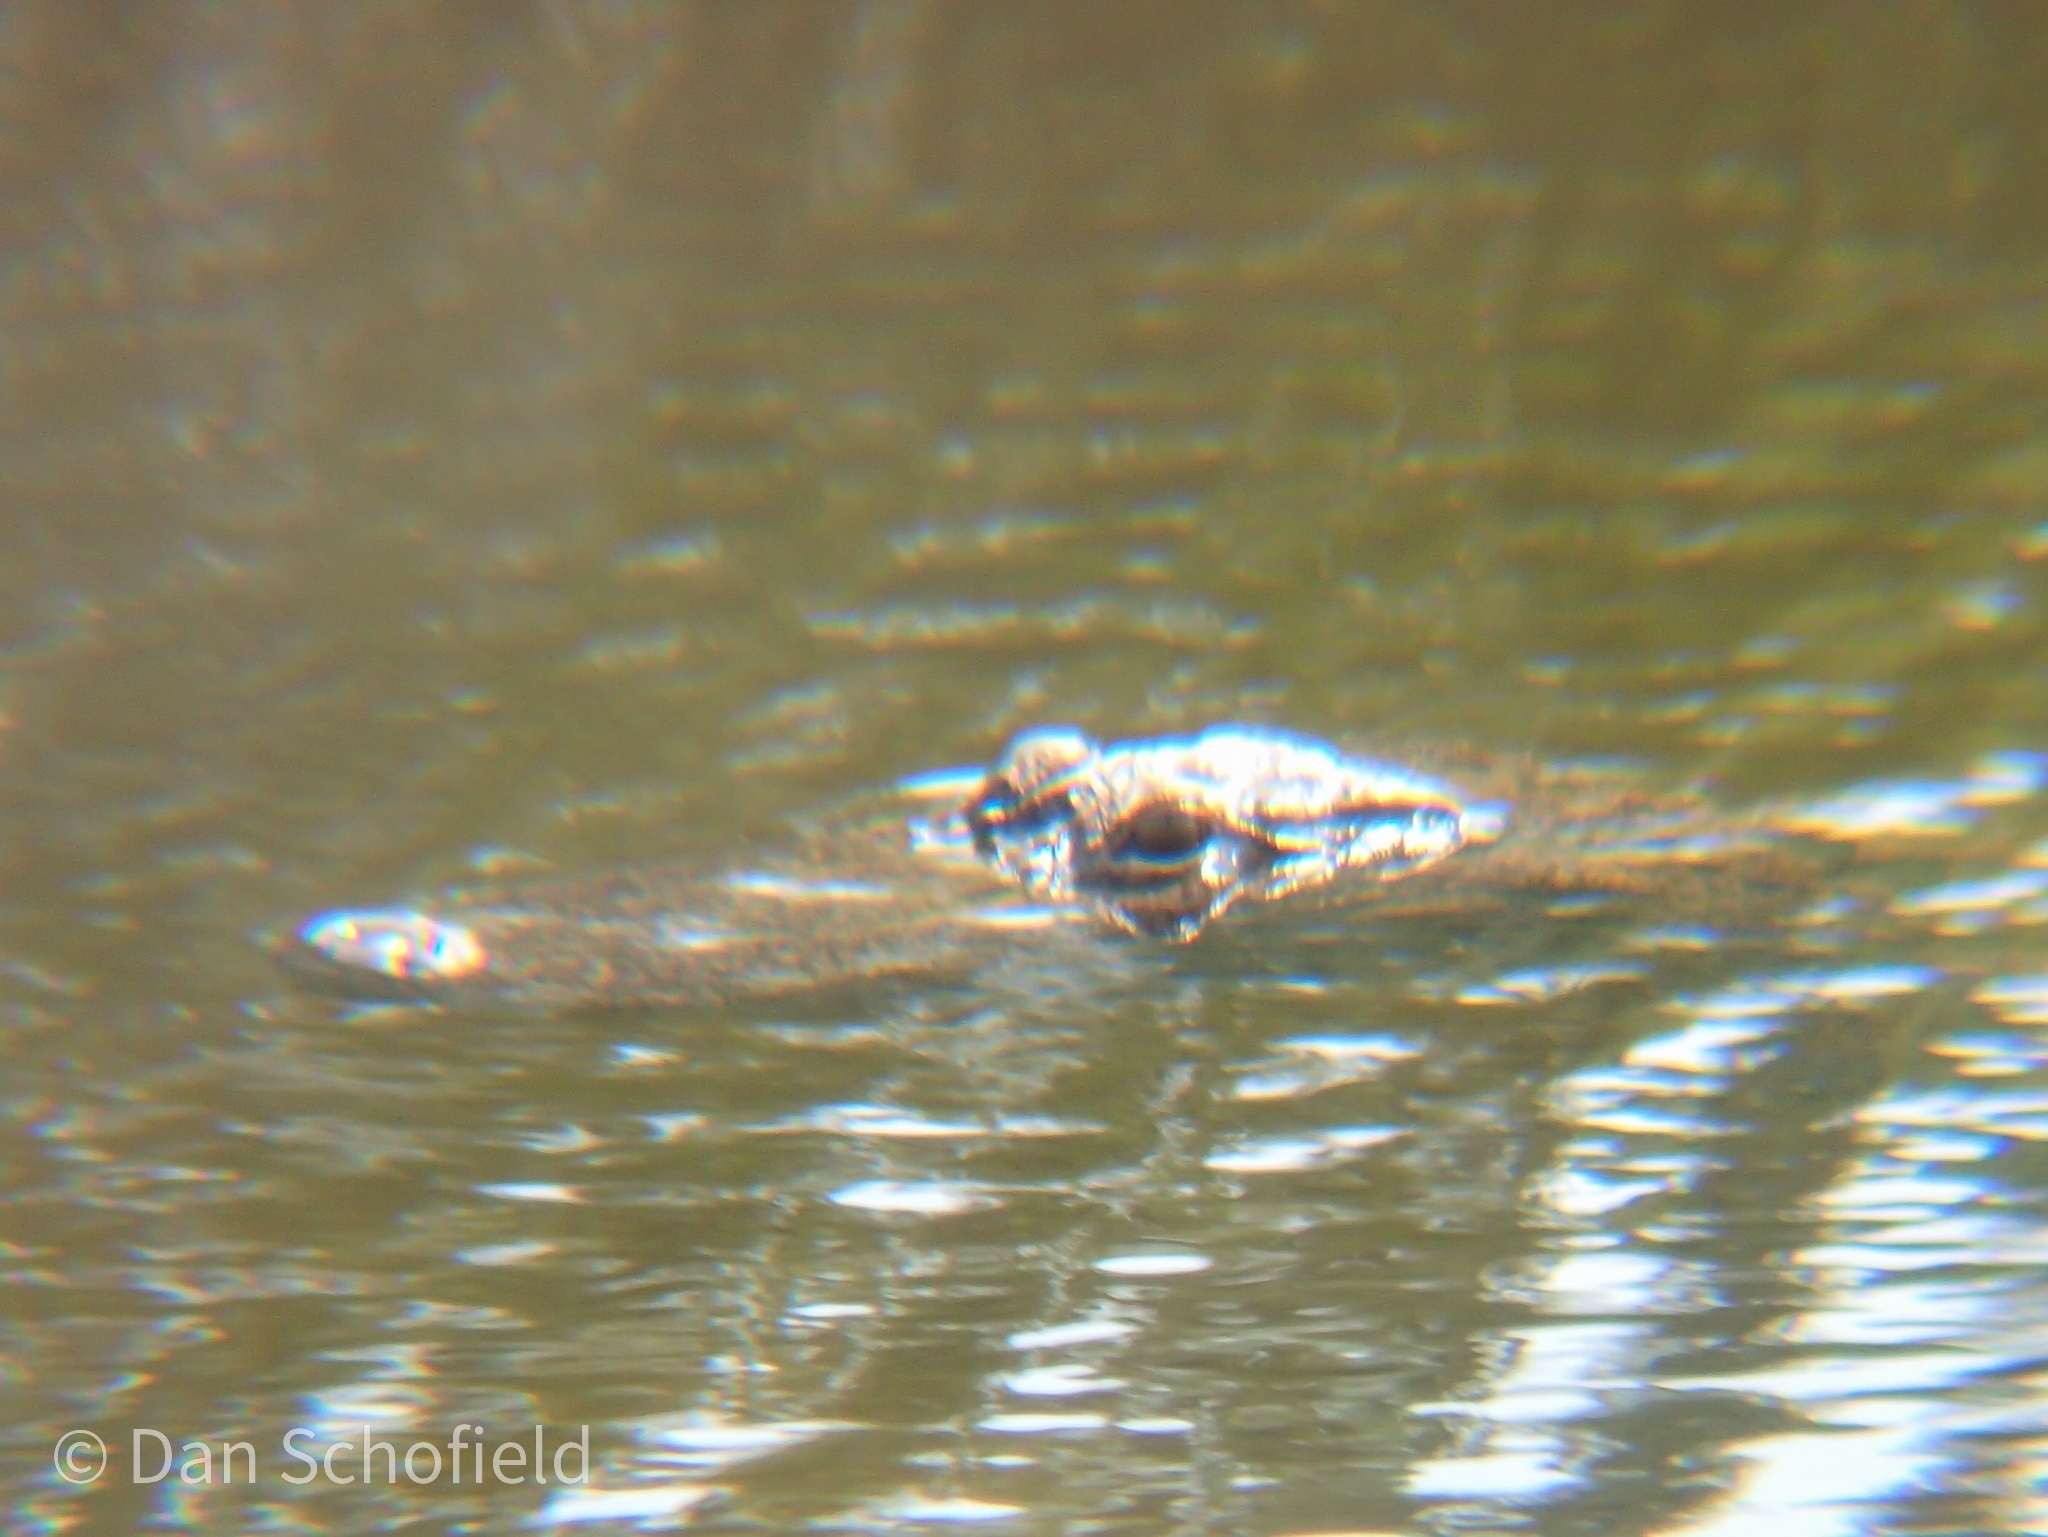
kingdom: Animalia
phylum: Chordata
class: Crocodylia
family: Alligatoridae
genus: Alligator
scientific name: Alligator mississippiensis
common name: American alligator
